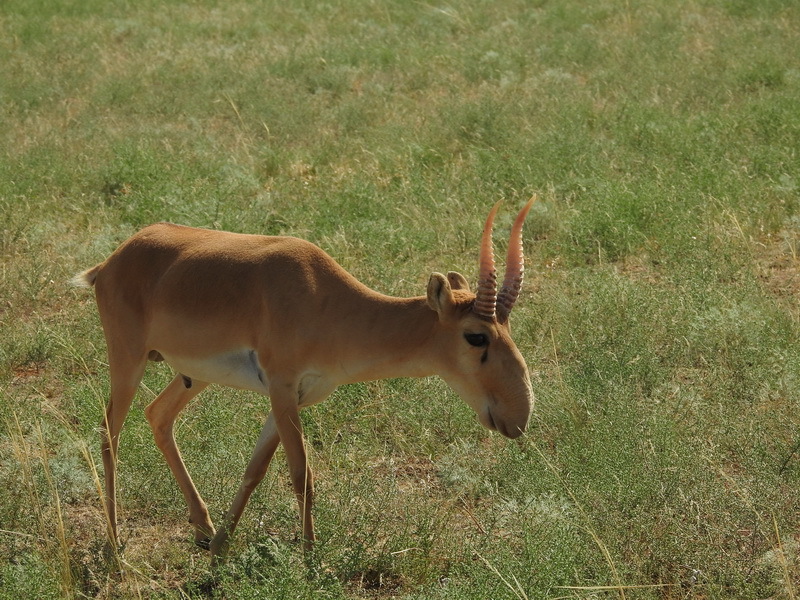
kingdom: Animalia
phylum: Chordata
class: Mammalia
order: Artiodactyla
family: Bovidae
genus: Saiga
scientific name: Saiga tatarica
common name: Saiga
